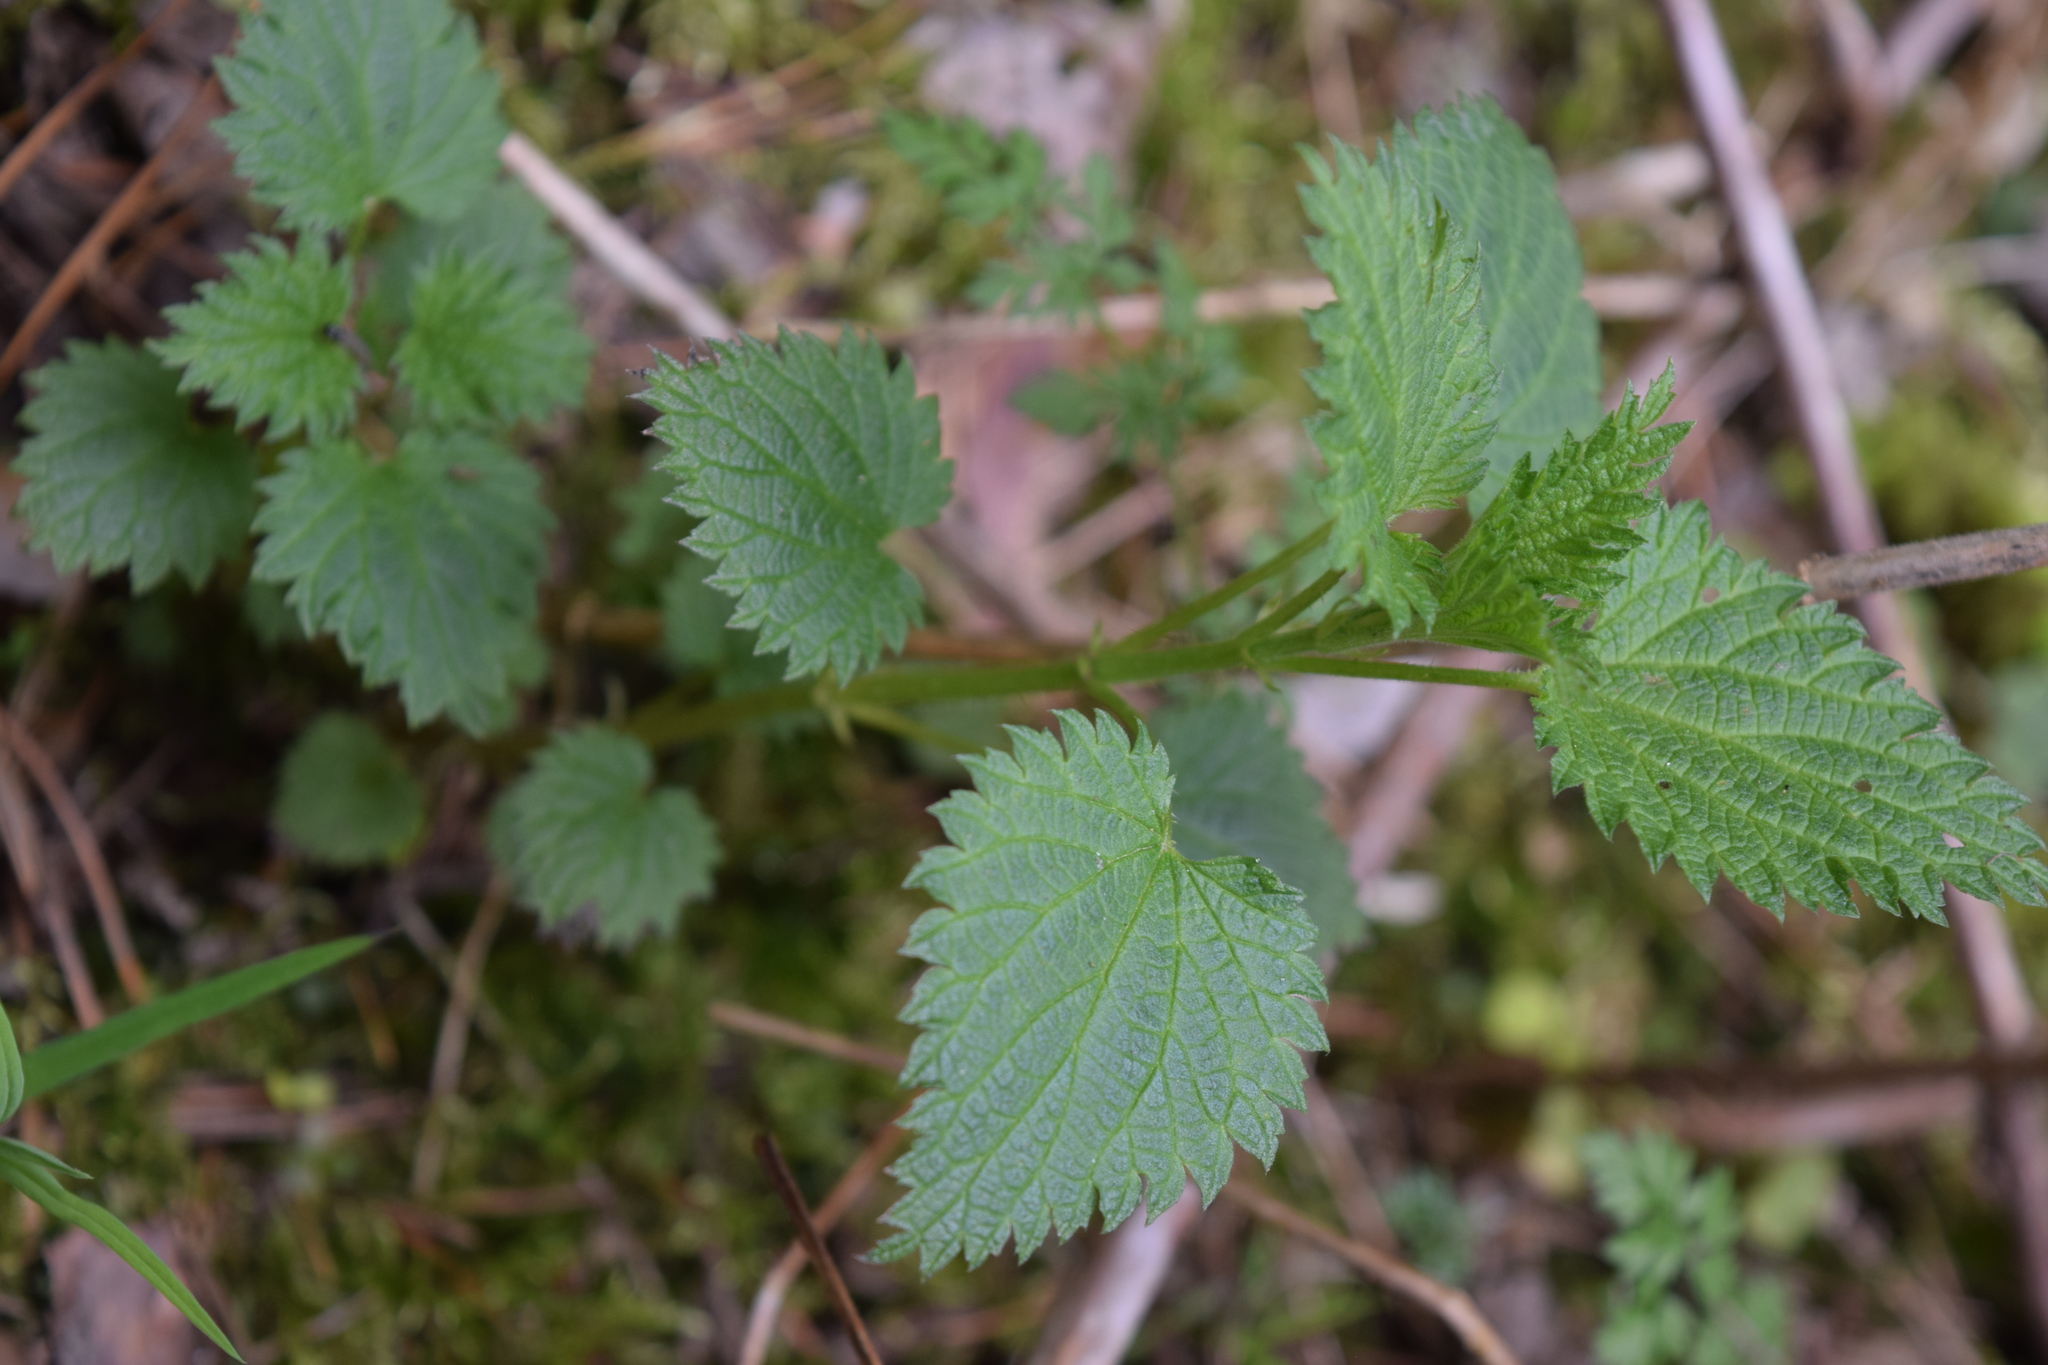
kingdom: Plantae
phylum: Tracheophyta
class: Magnoliopsida
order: Rosales
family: Urticaceae
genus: Urtica
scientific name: Urtica dioica
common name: Common nettle
